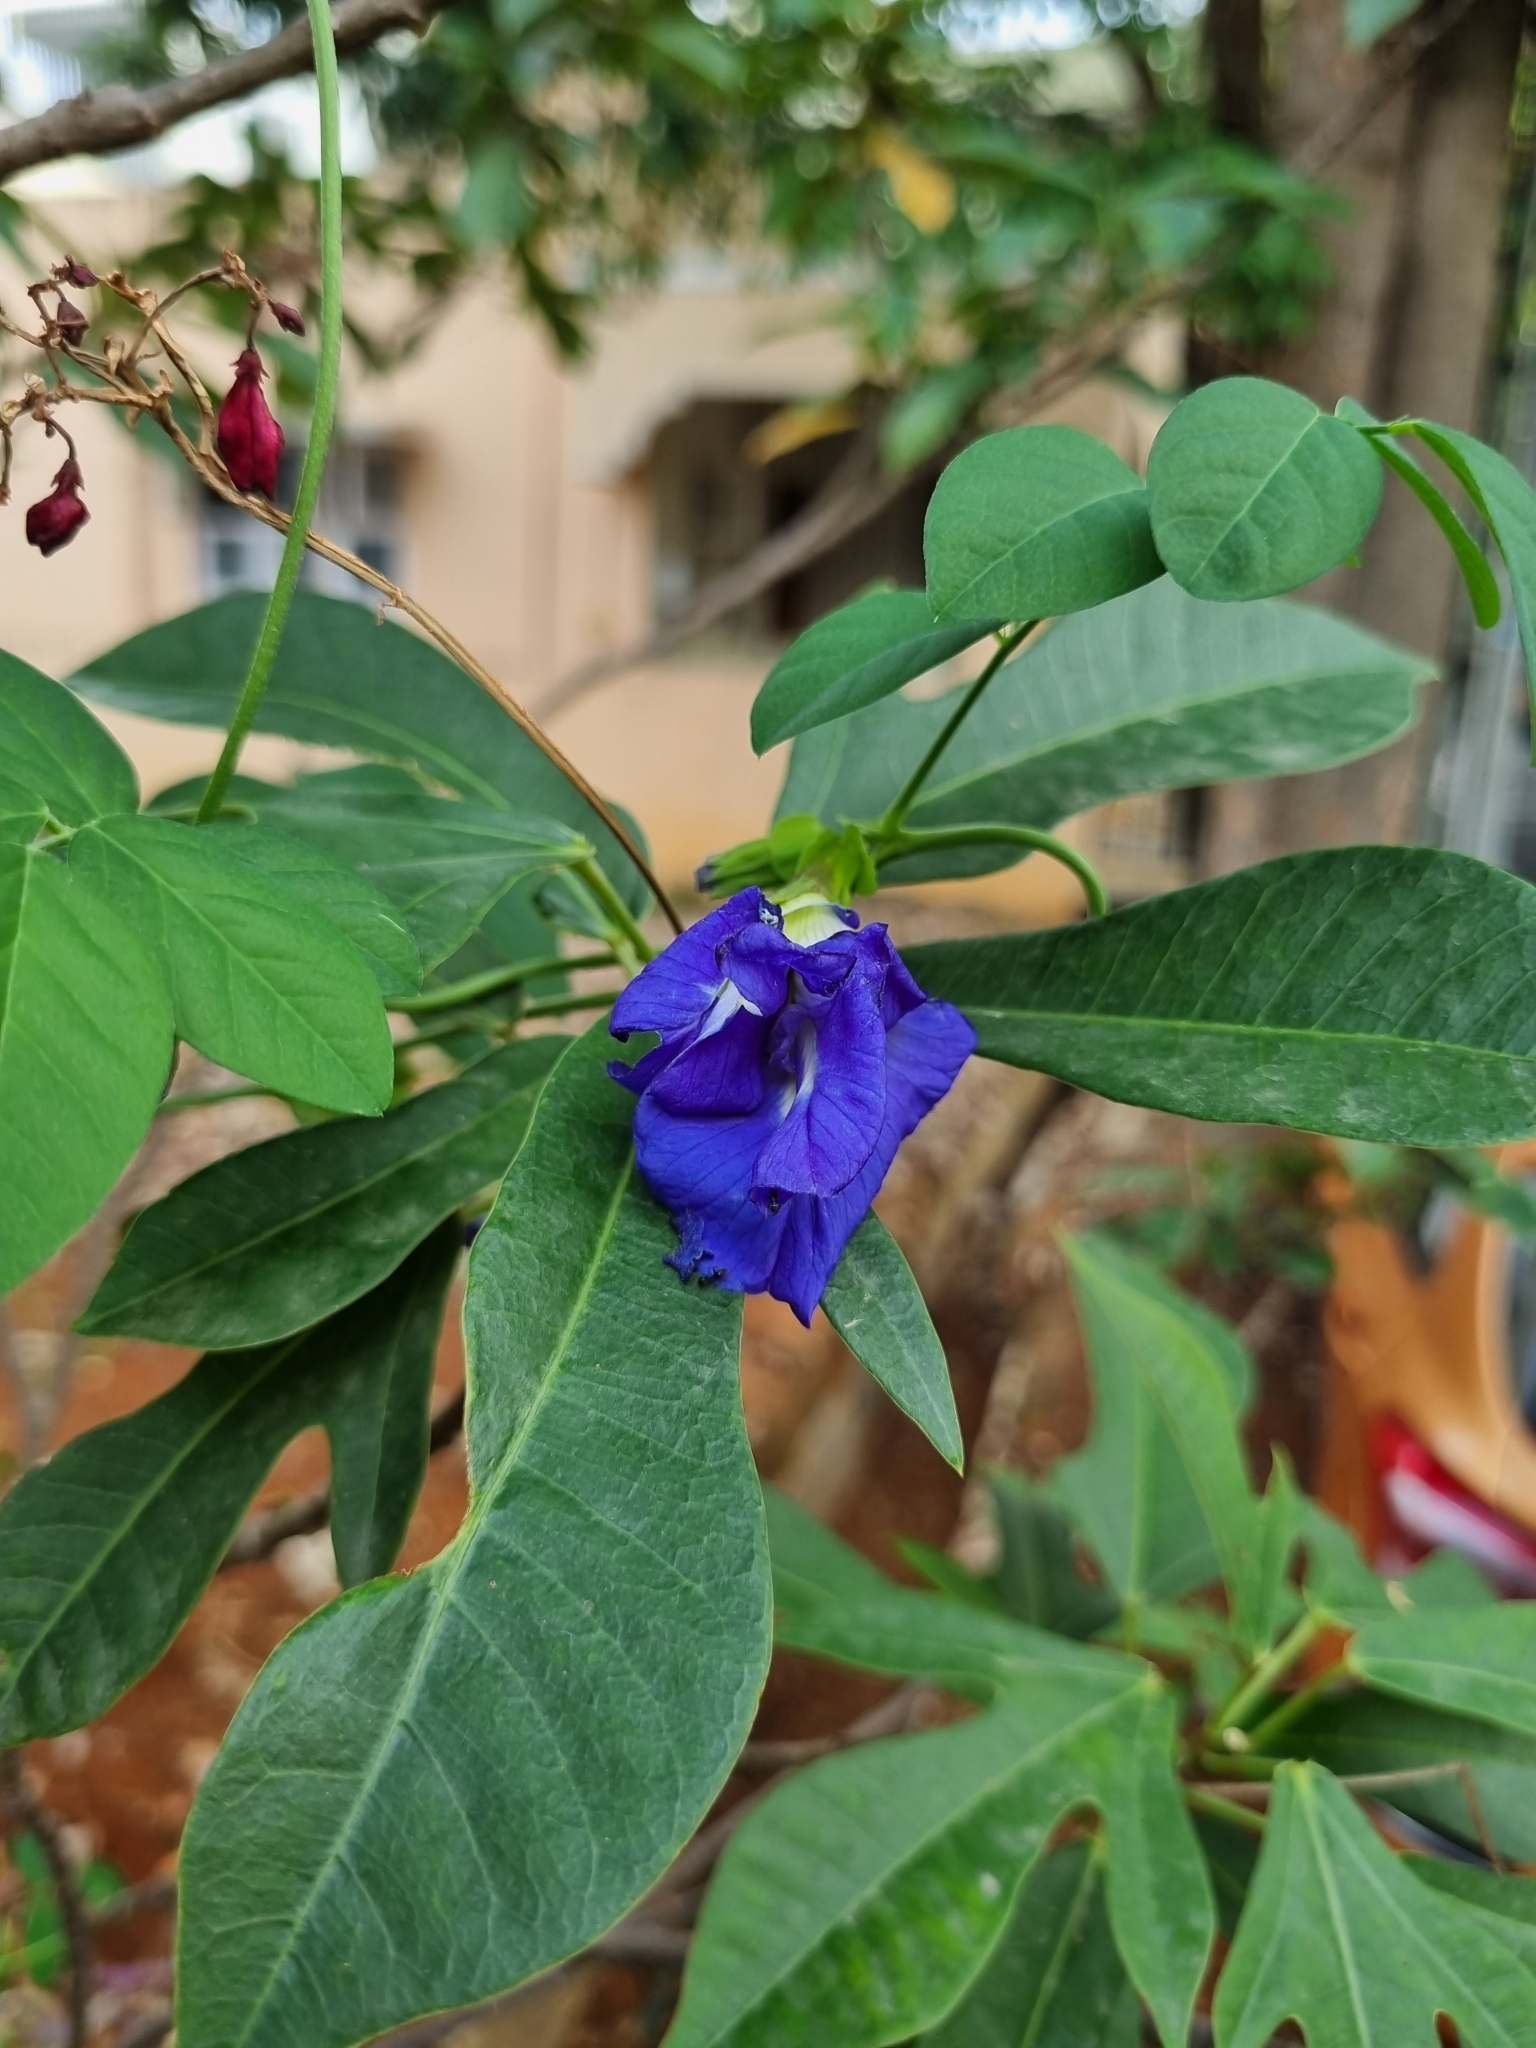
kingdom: Plantae
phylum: Tracheophyta
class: Magnoliopsida
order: Fabales
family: Fabaceae
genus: Clitoria
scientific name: Clitoria ternatea
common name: Asian pigeonwings
